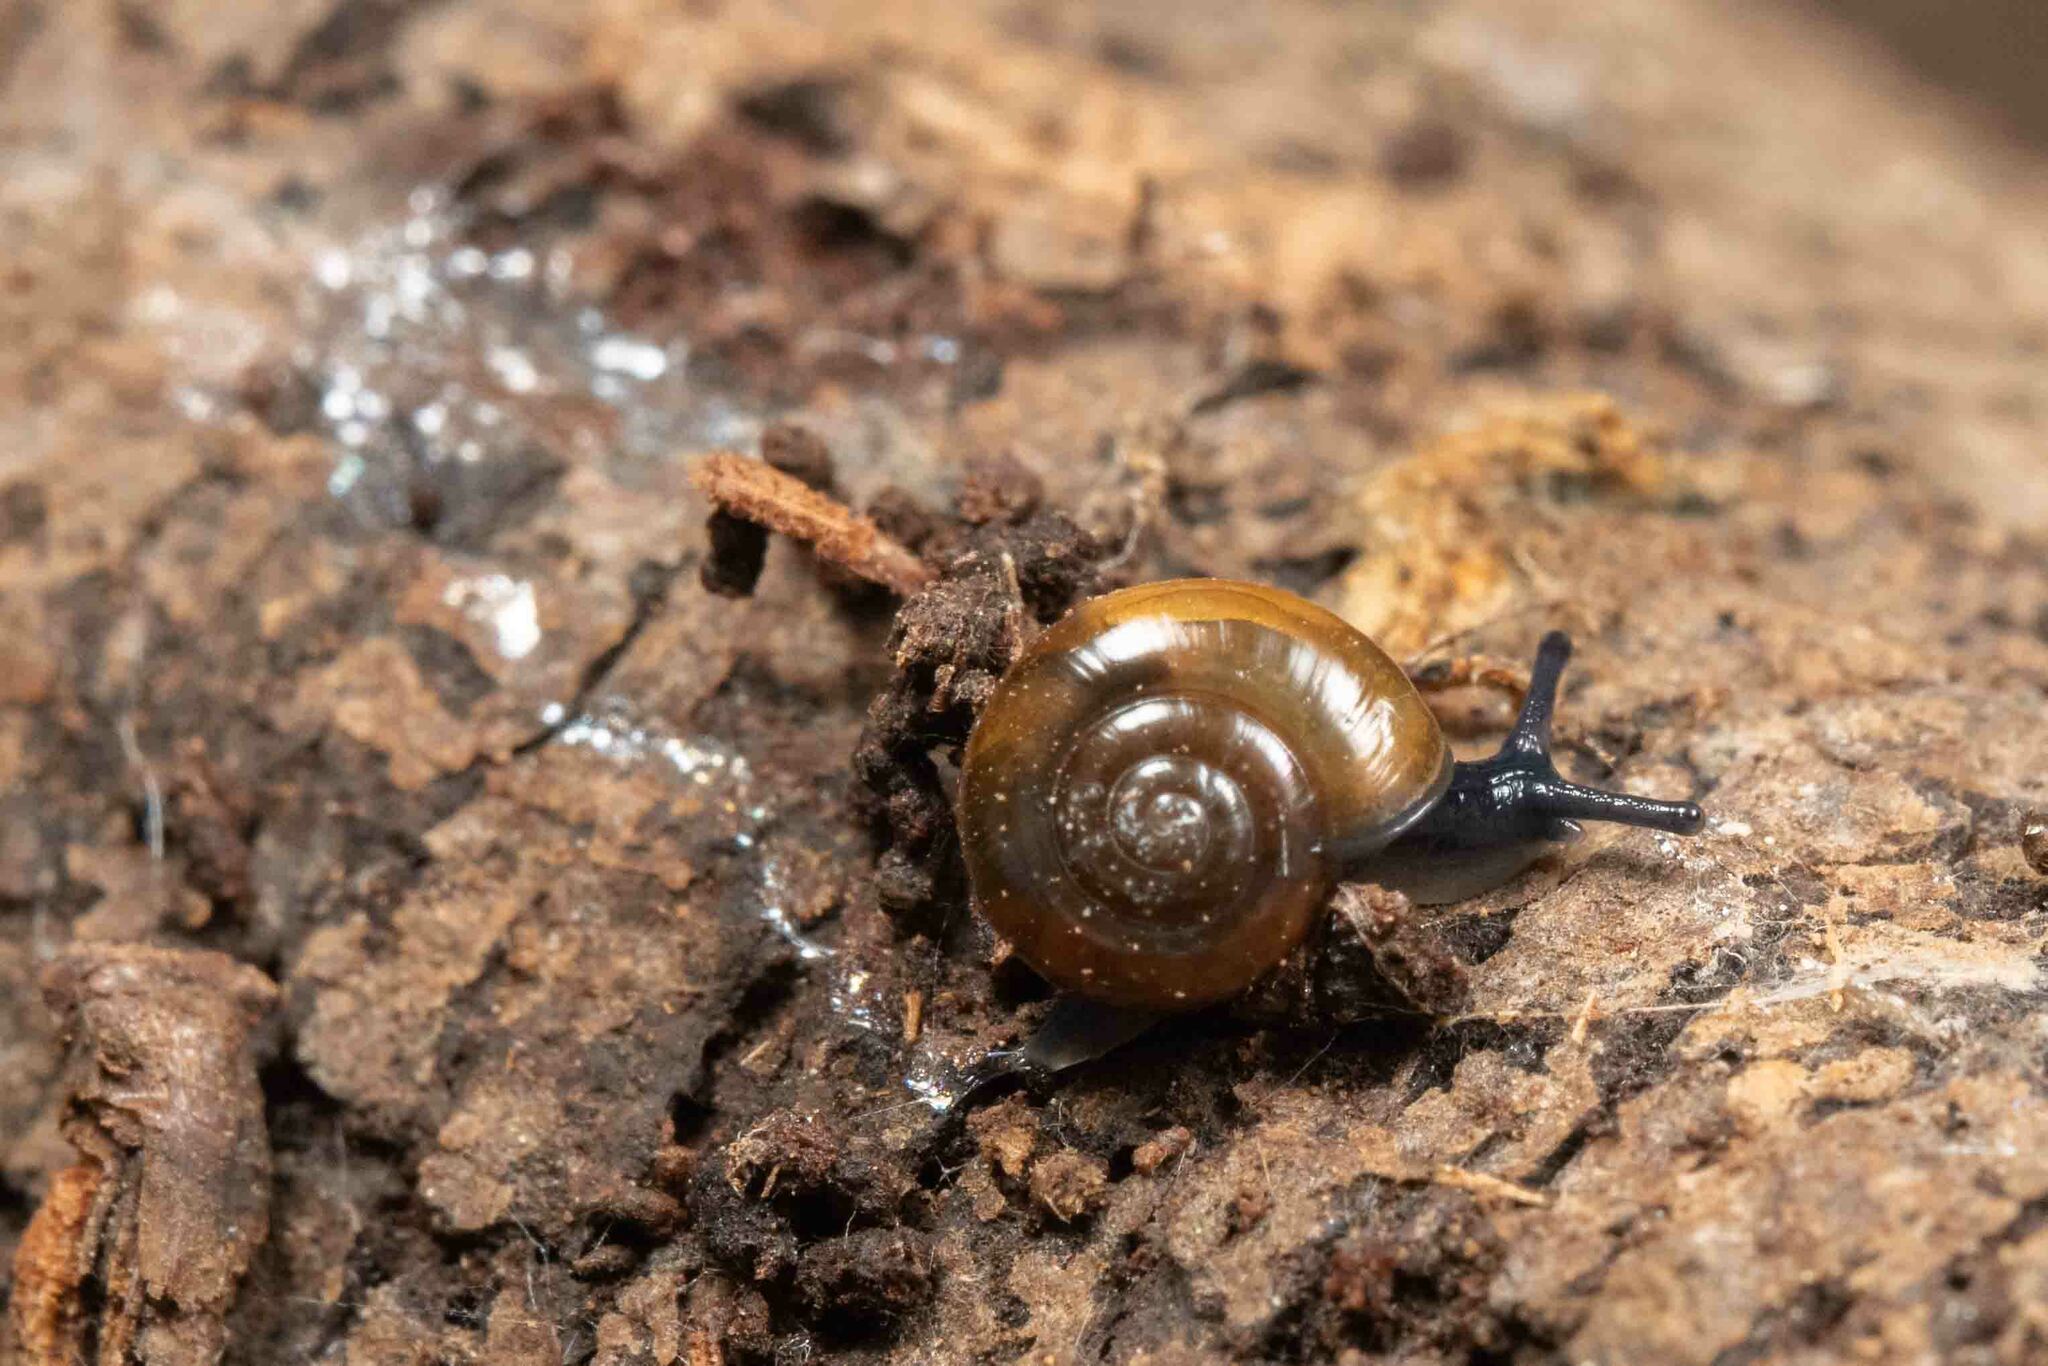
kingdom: Animalia
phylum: Mollusca
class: Gastropoda
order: Stylommatophora
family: Oxychilidae
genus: Oxychilus
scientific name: Oxychilus alliarius
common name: Garlic glass-snail
